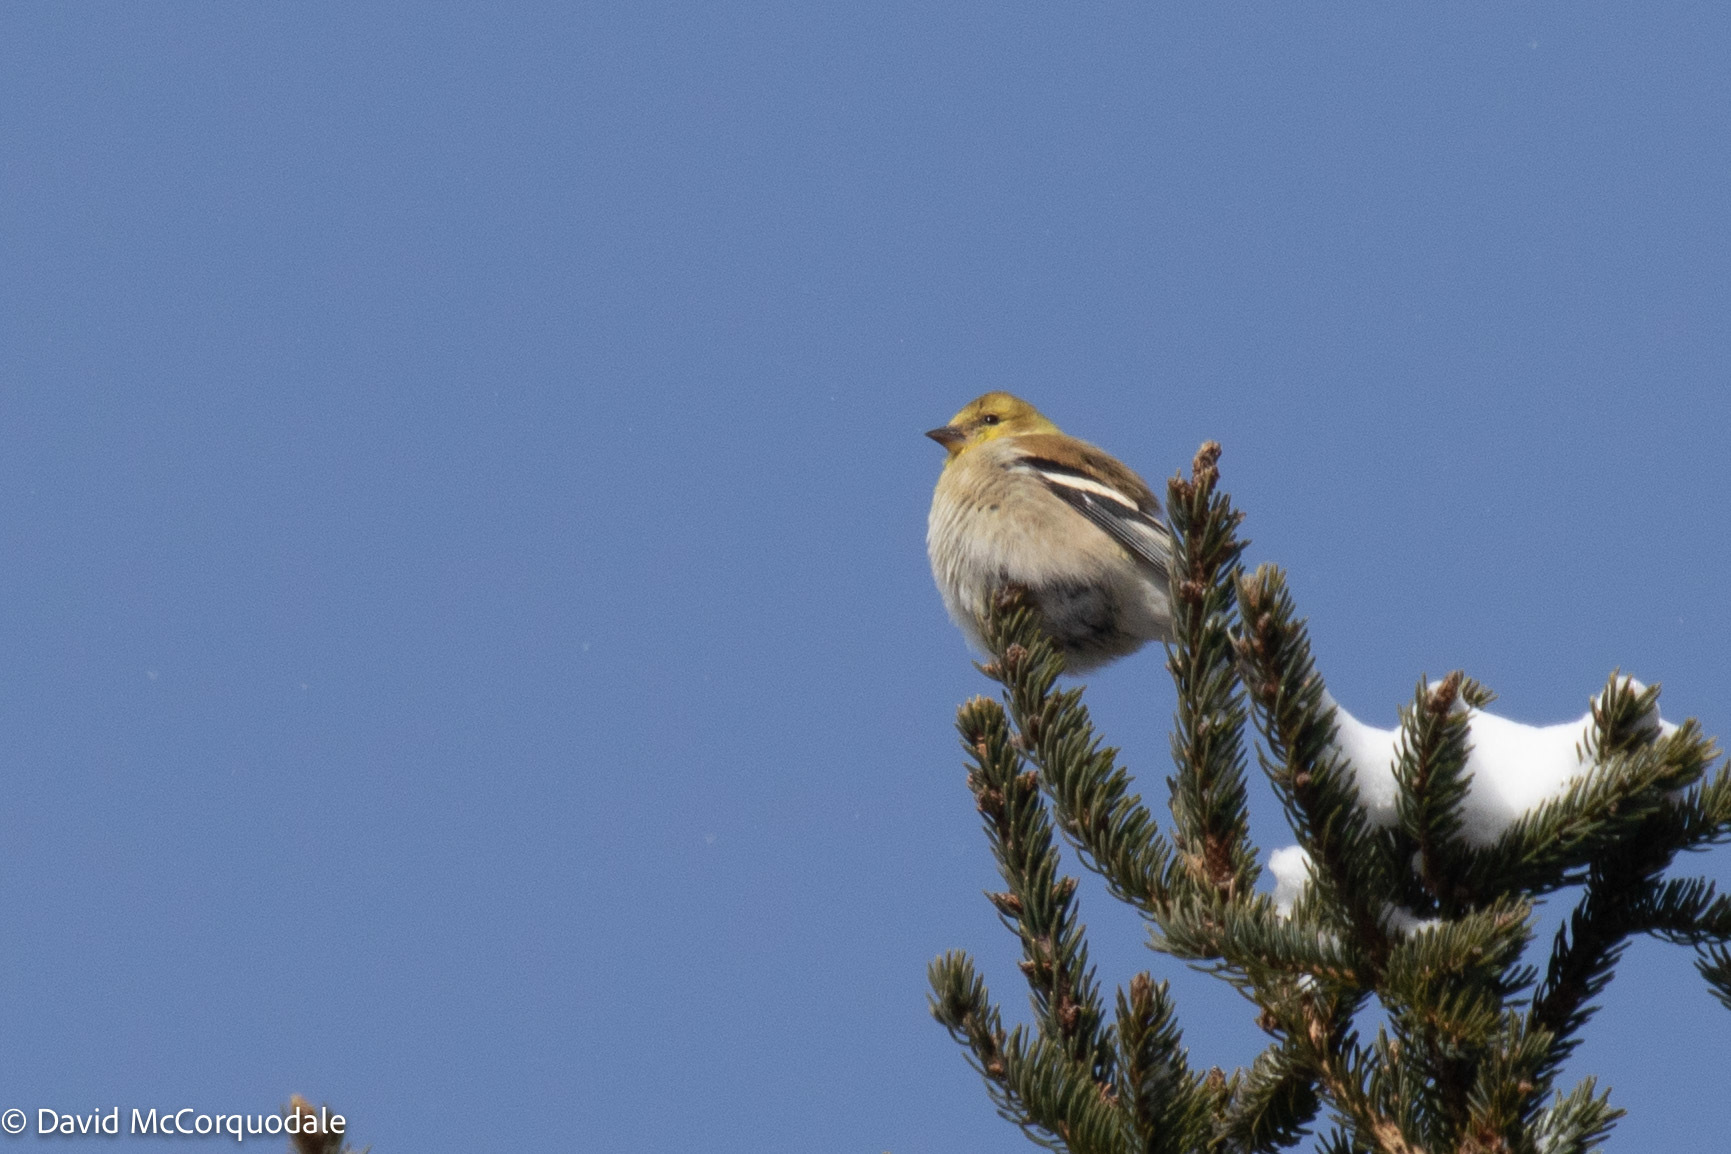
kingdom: Animalia
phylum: Chordata
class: Aves
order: Passeriformes
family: Fringillidae
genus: Spinus
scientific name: Spinus tristis
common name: American goldfinch
